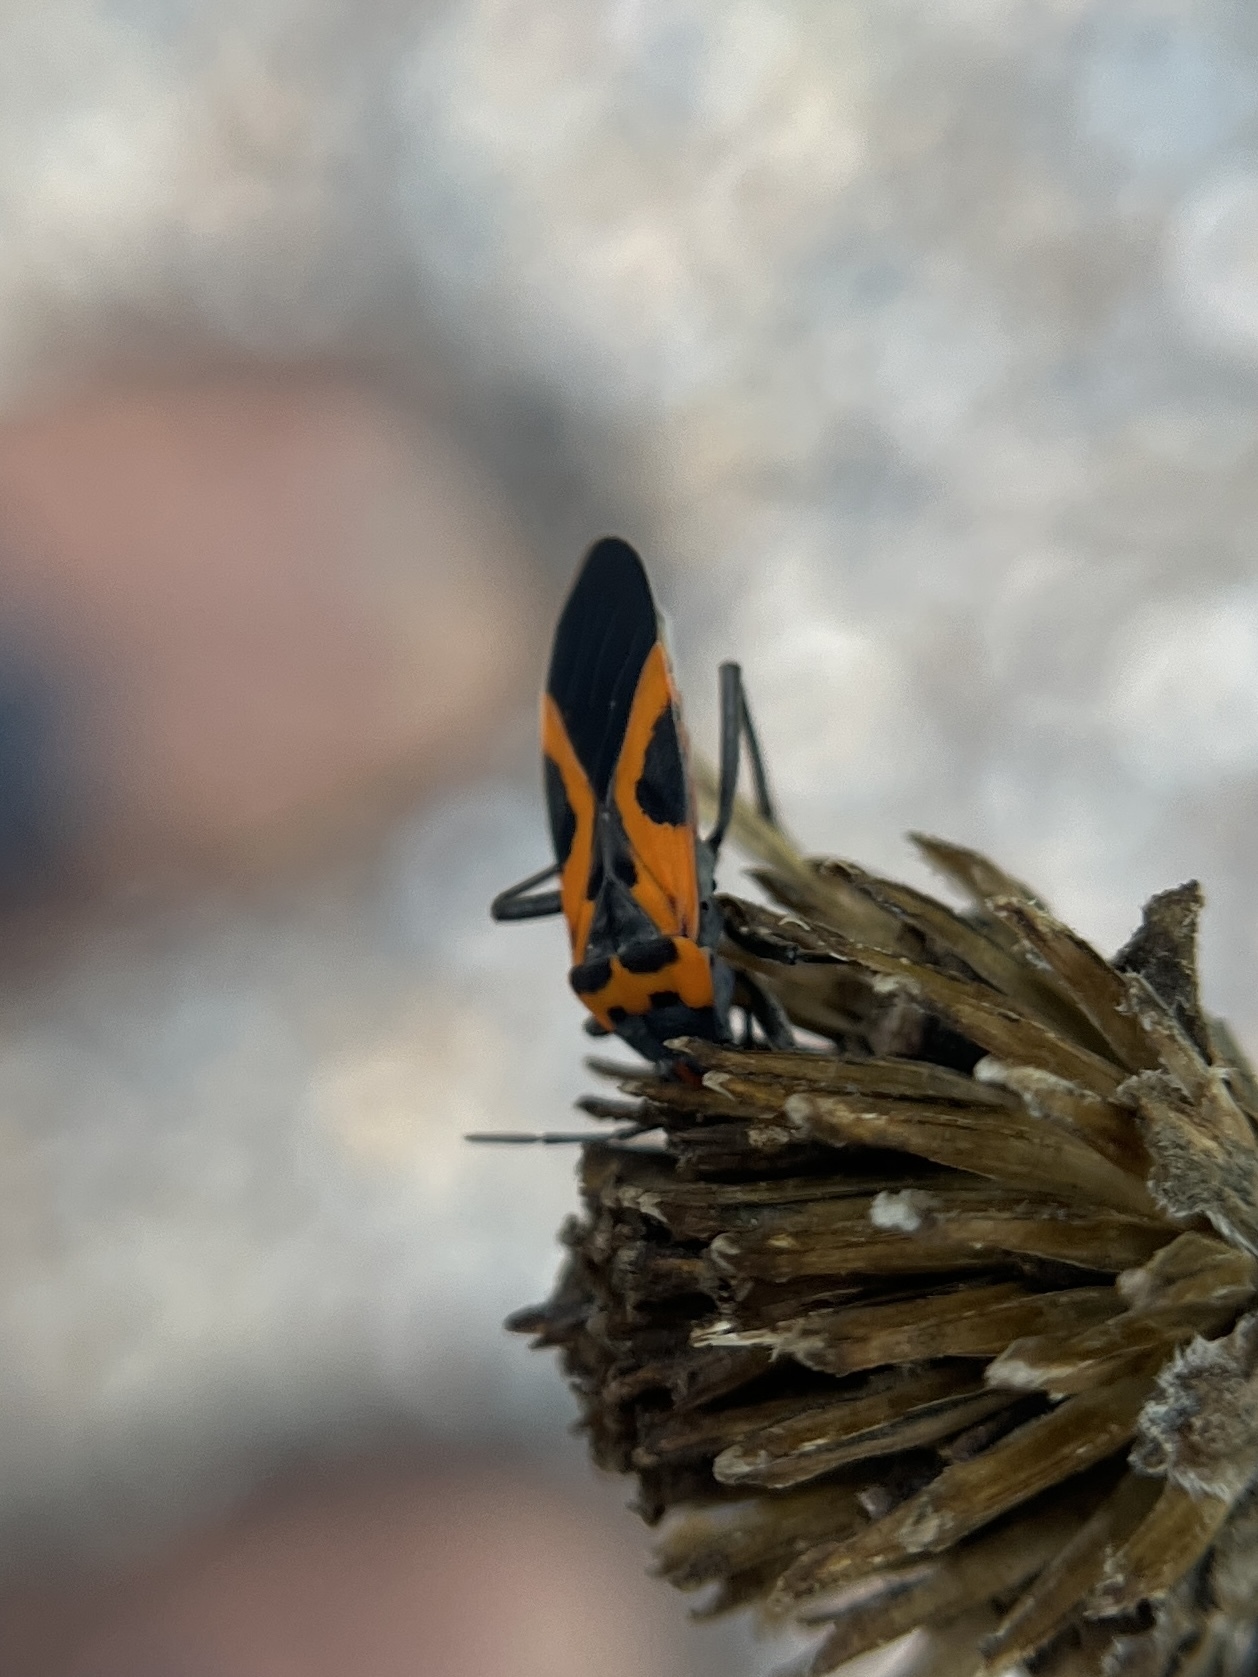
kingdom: Animalia
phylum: Arthropoda
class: Insecta
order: Hemiptera
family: Lygaeidae
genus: Lygaeus
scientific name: Lygaeus turcicus
